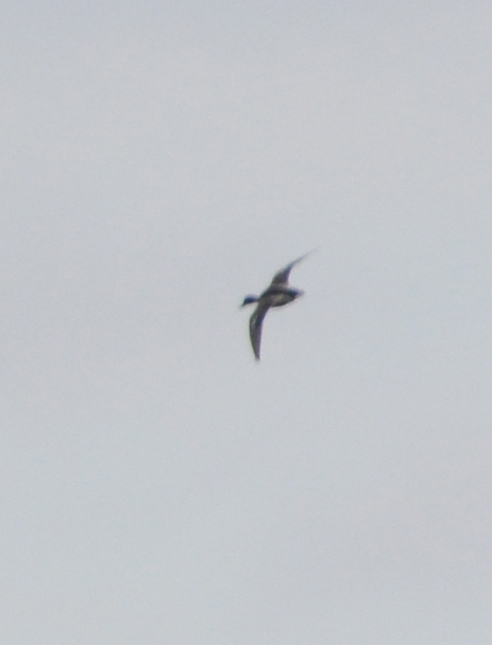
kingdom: Animalia
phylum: Chordata
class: Aves
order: Anseriformes
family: Anatidae
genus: Anas
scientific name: Anas platyrhynchos
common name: Mallard
